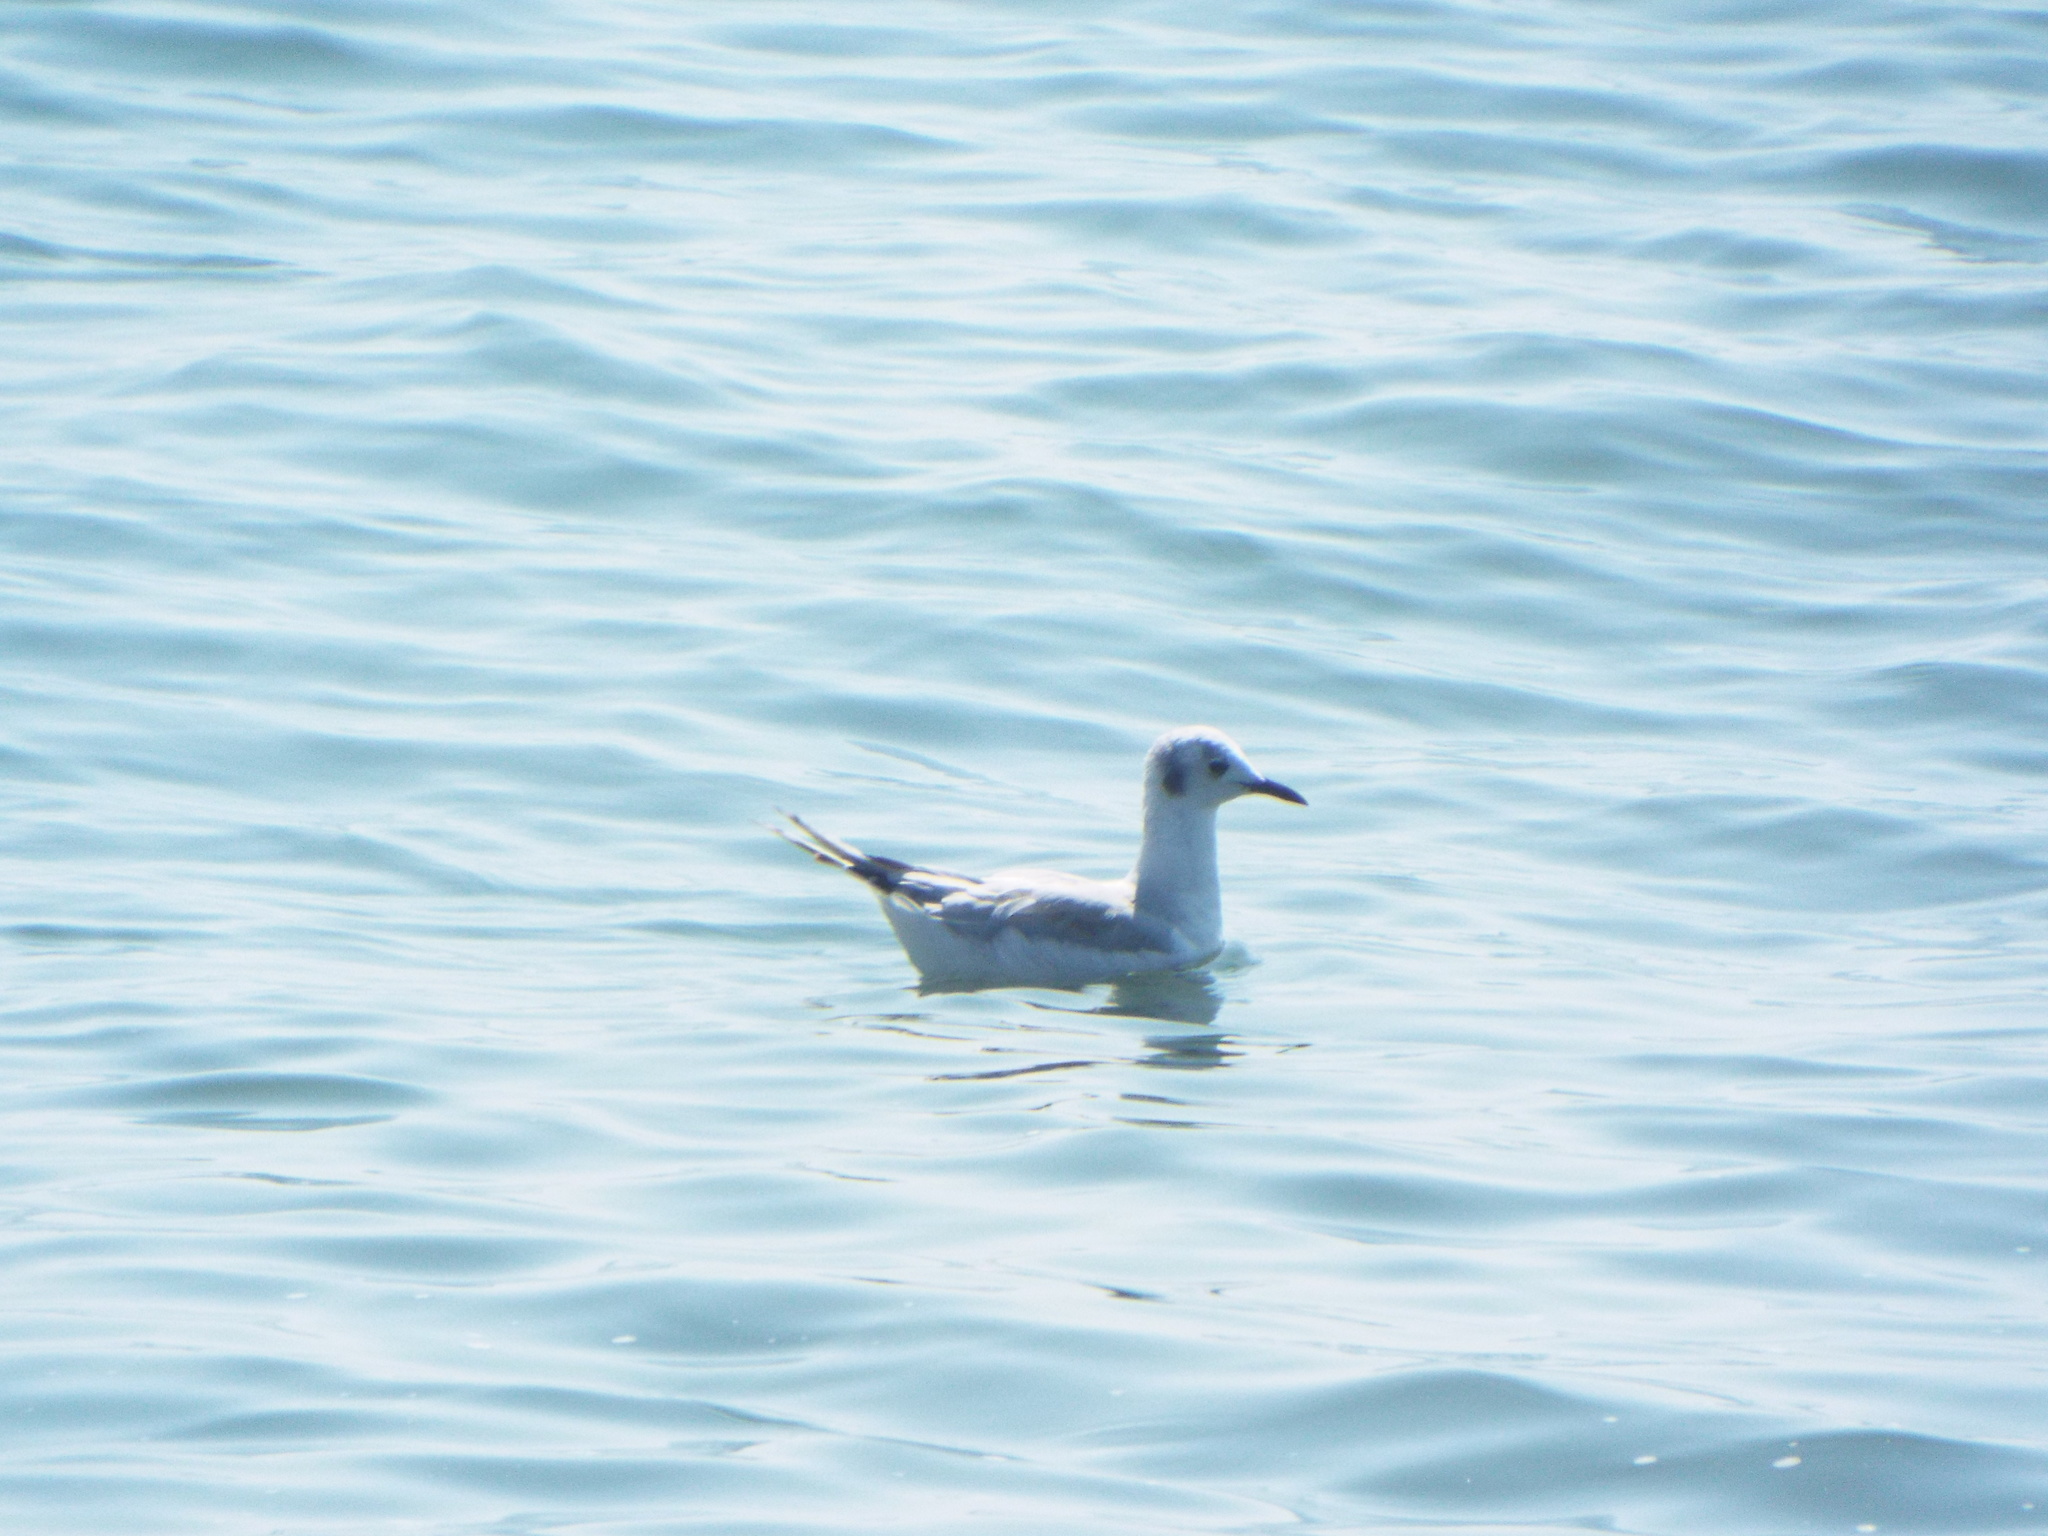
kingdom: Animalia
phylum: Chordata
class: Aves
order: Charadriiformes
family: Laridae
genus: Chroicocephalus
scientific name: Chroicocephalus philadelphia
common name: Bonaparte's gull
